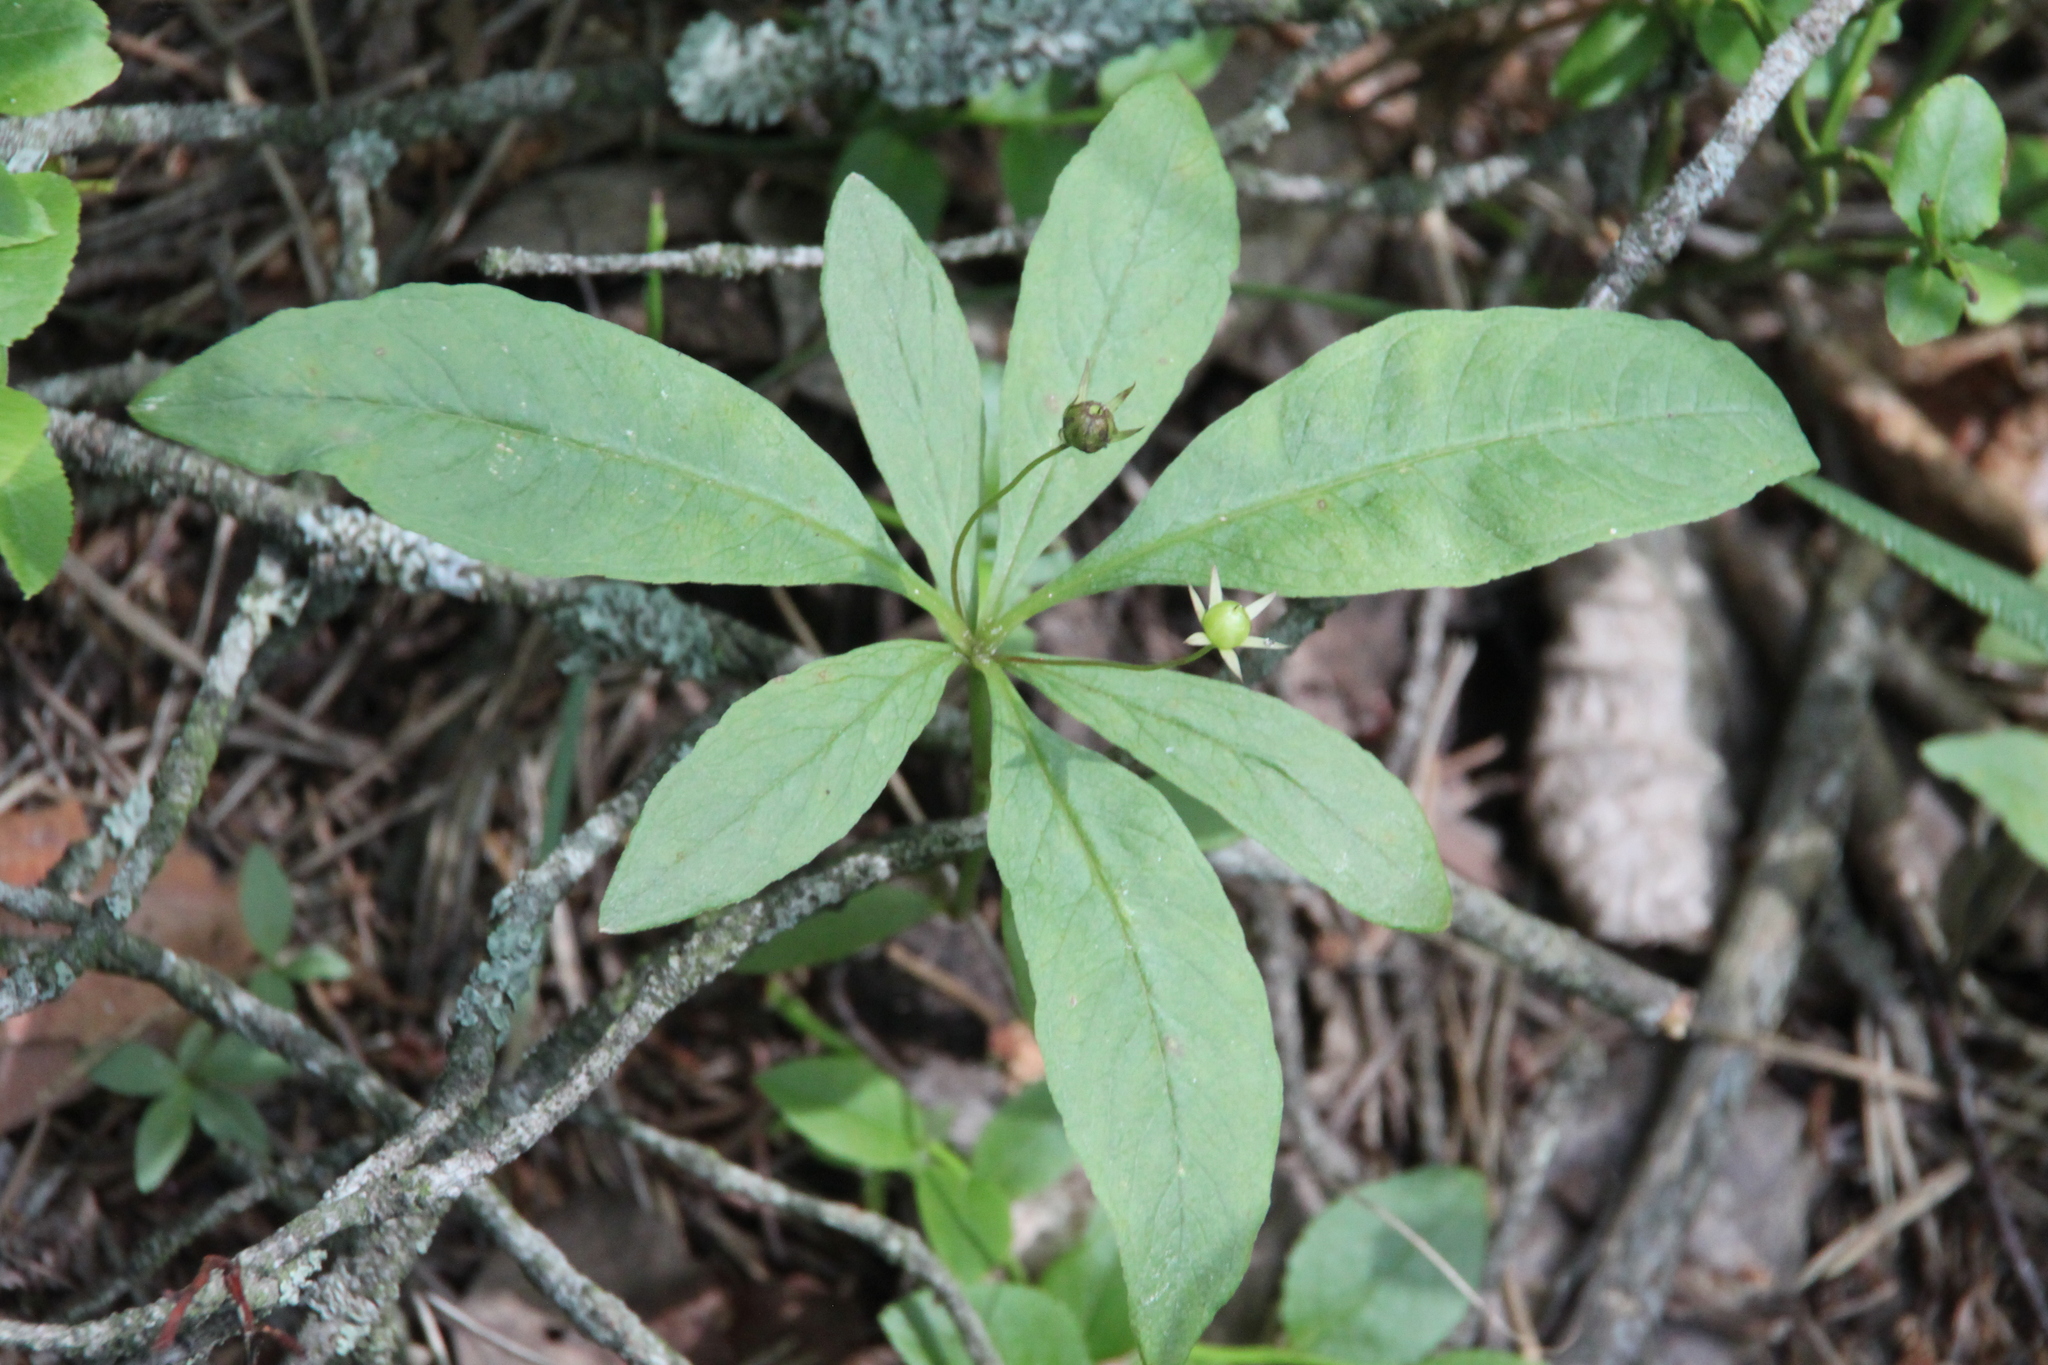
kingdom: Plantae
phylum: Tracheophyta
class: Magnoliopsida
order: Ericales
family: Primulaceae
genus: Lysimachia
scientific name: Lysimachia europaea
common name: Arctic starflower
